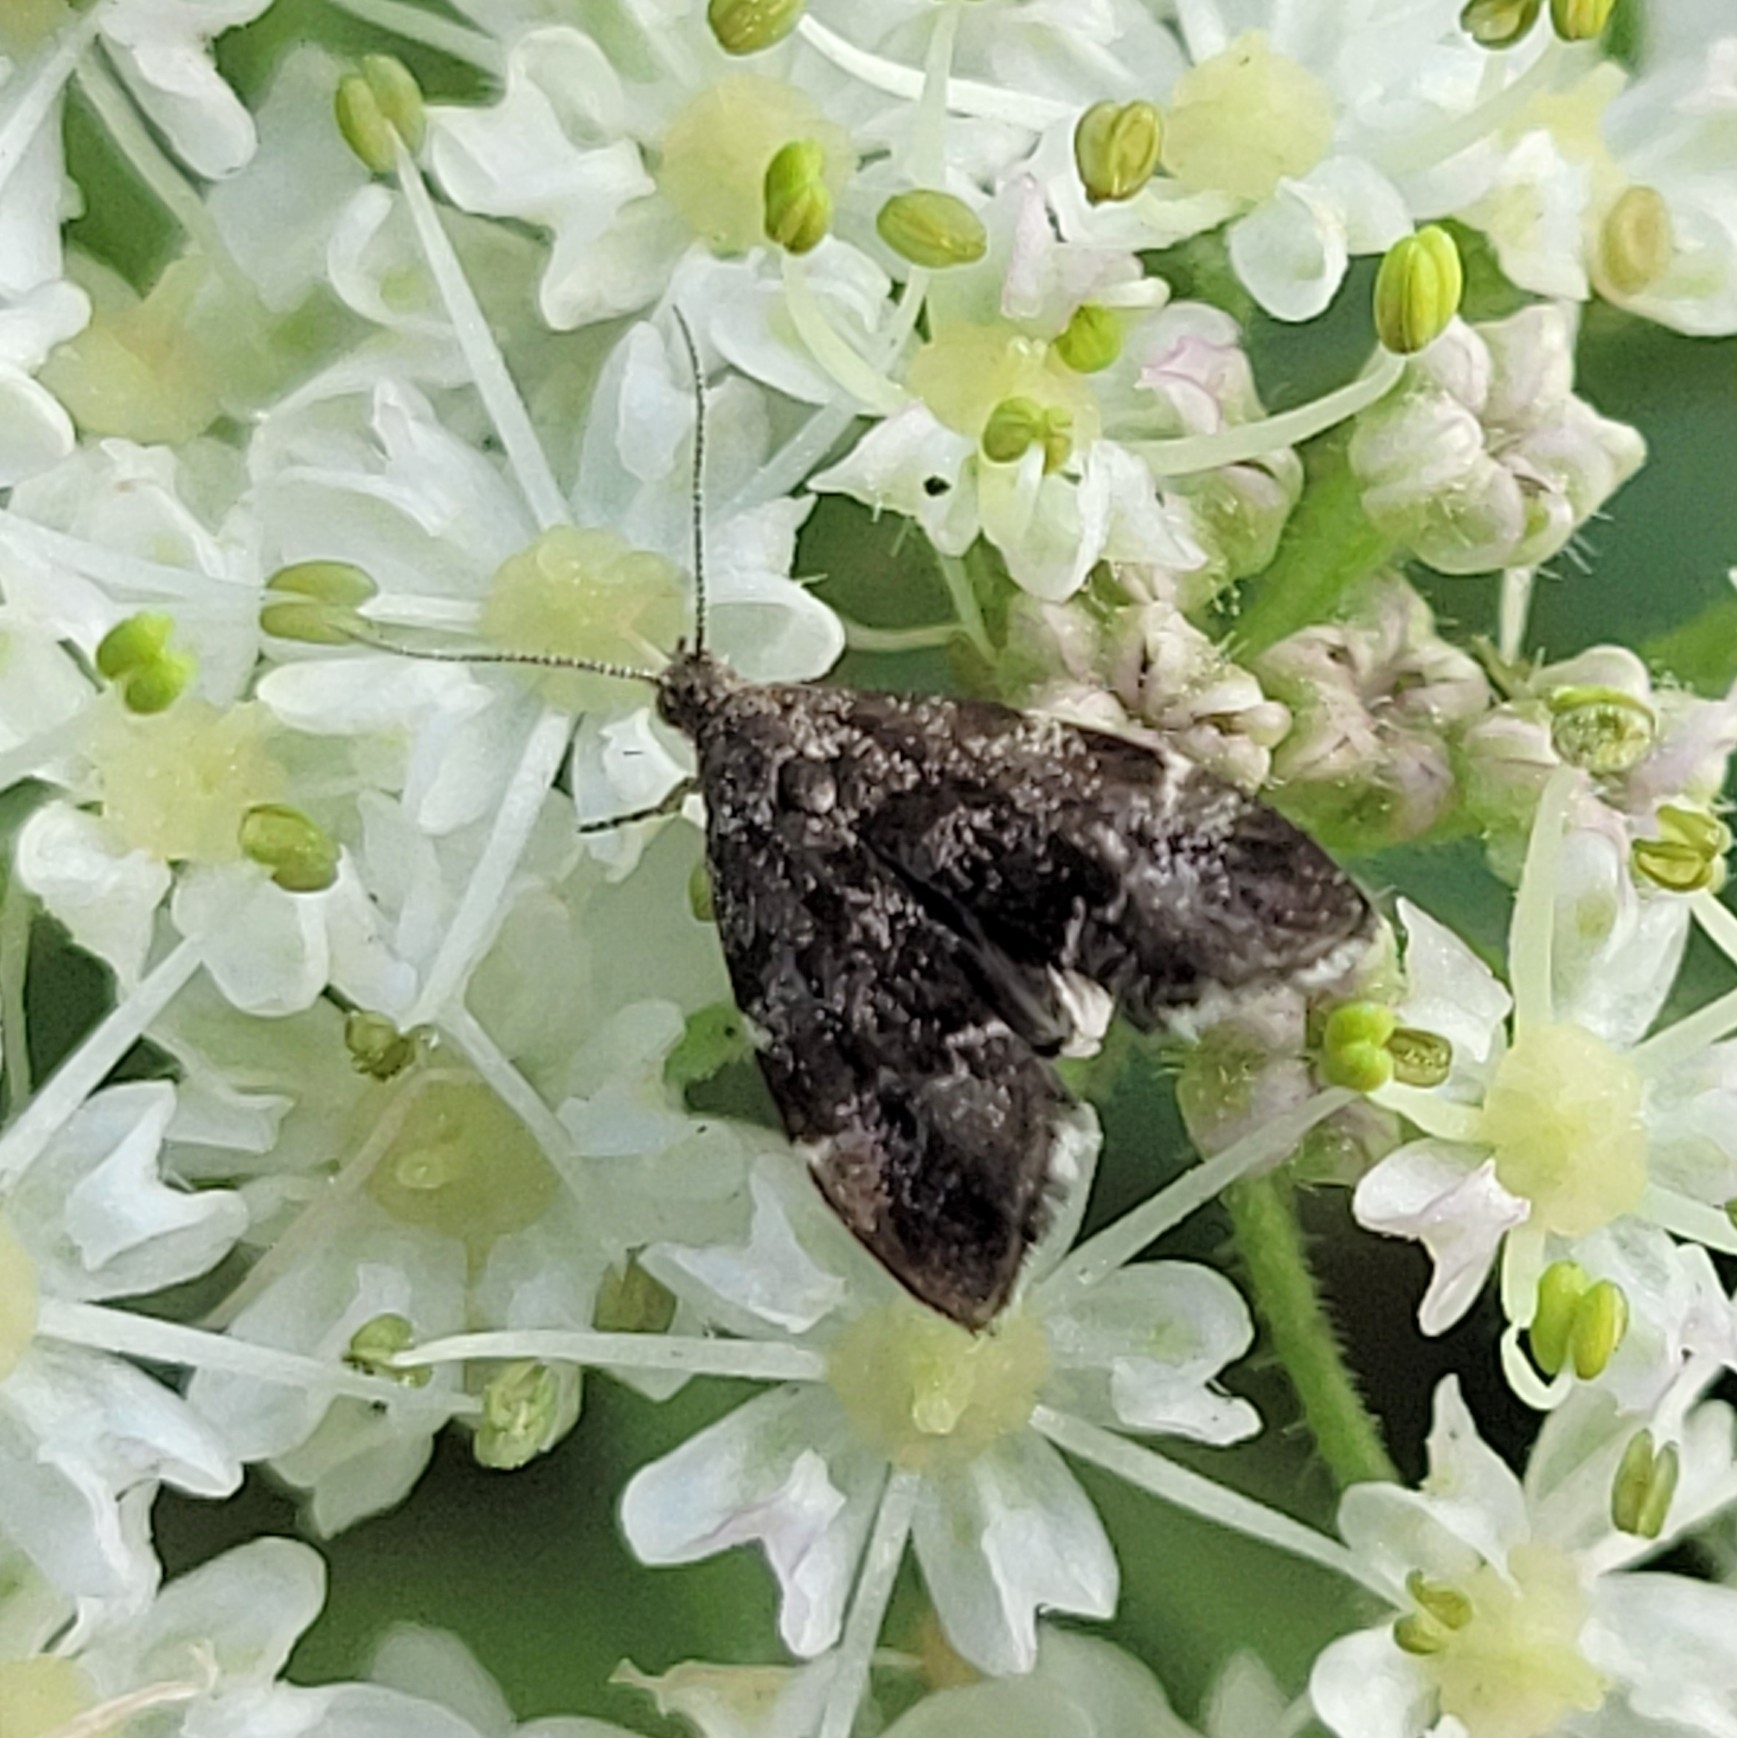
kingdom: Animalia
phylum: Arthropoda
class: Insecta
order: Lepidoptera
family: Choreutidae
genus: Anthophila
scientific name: Anthophila fabriciana
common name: Nettle-tap
